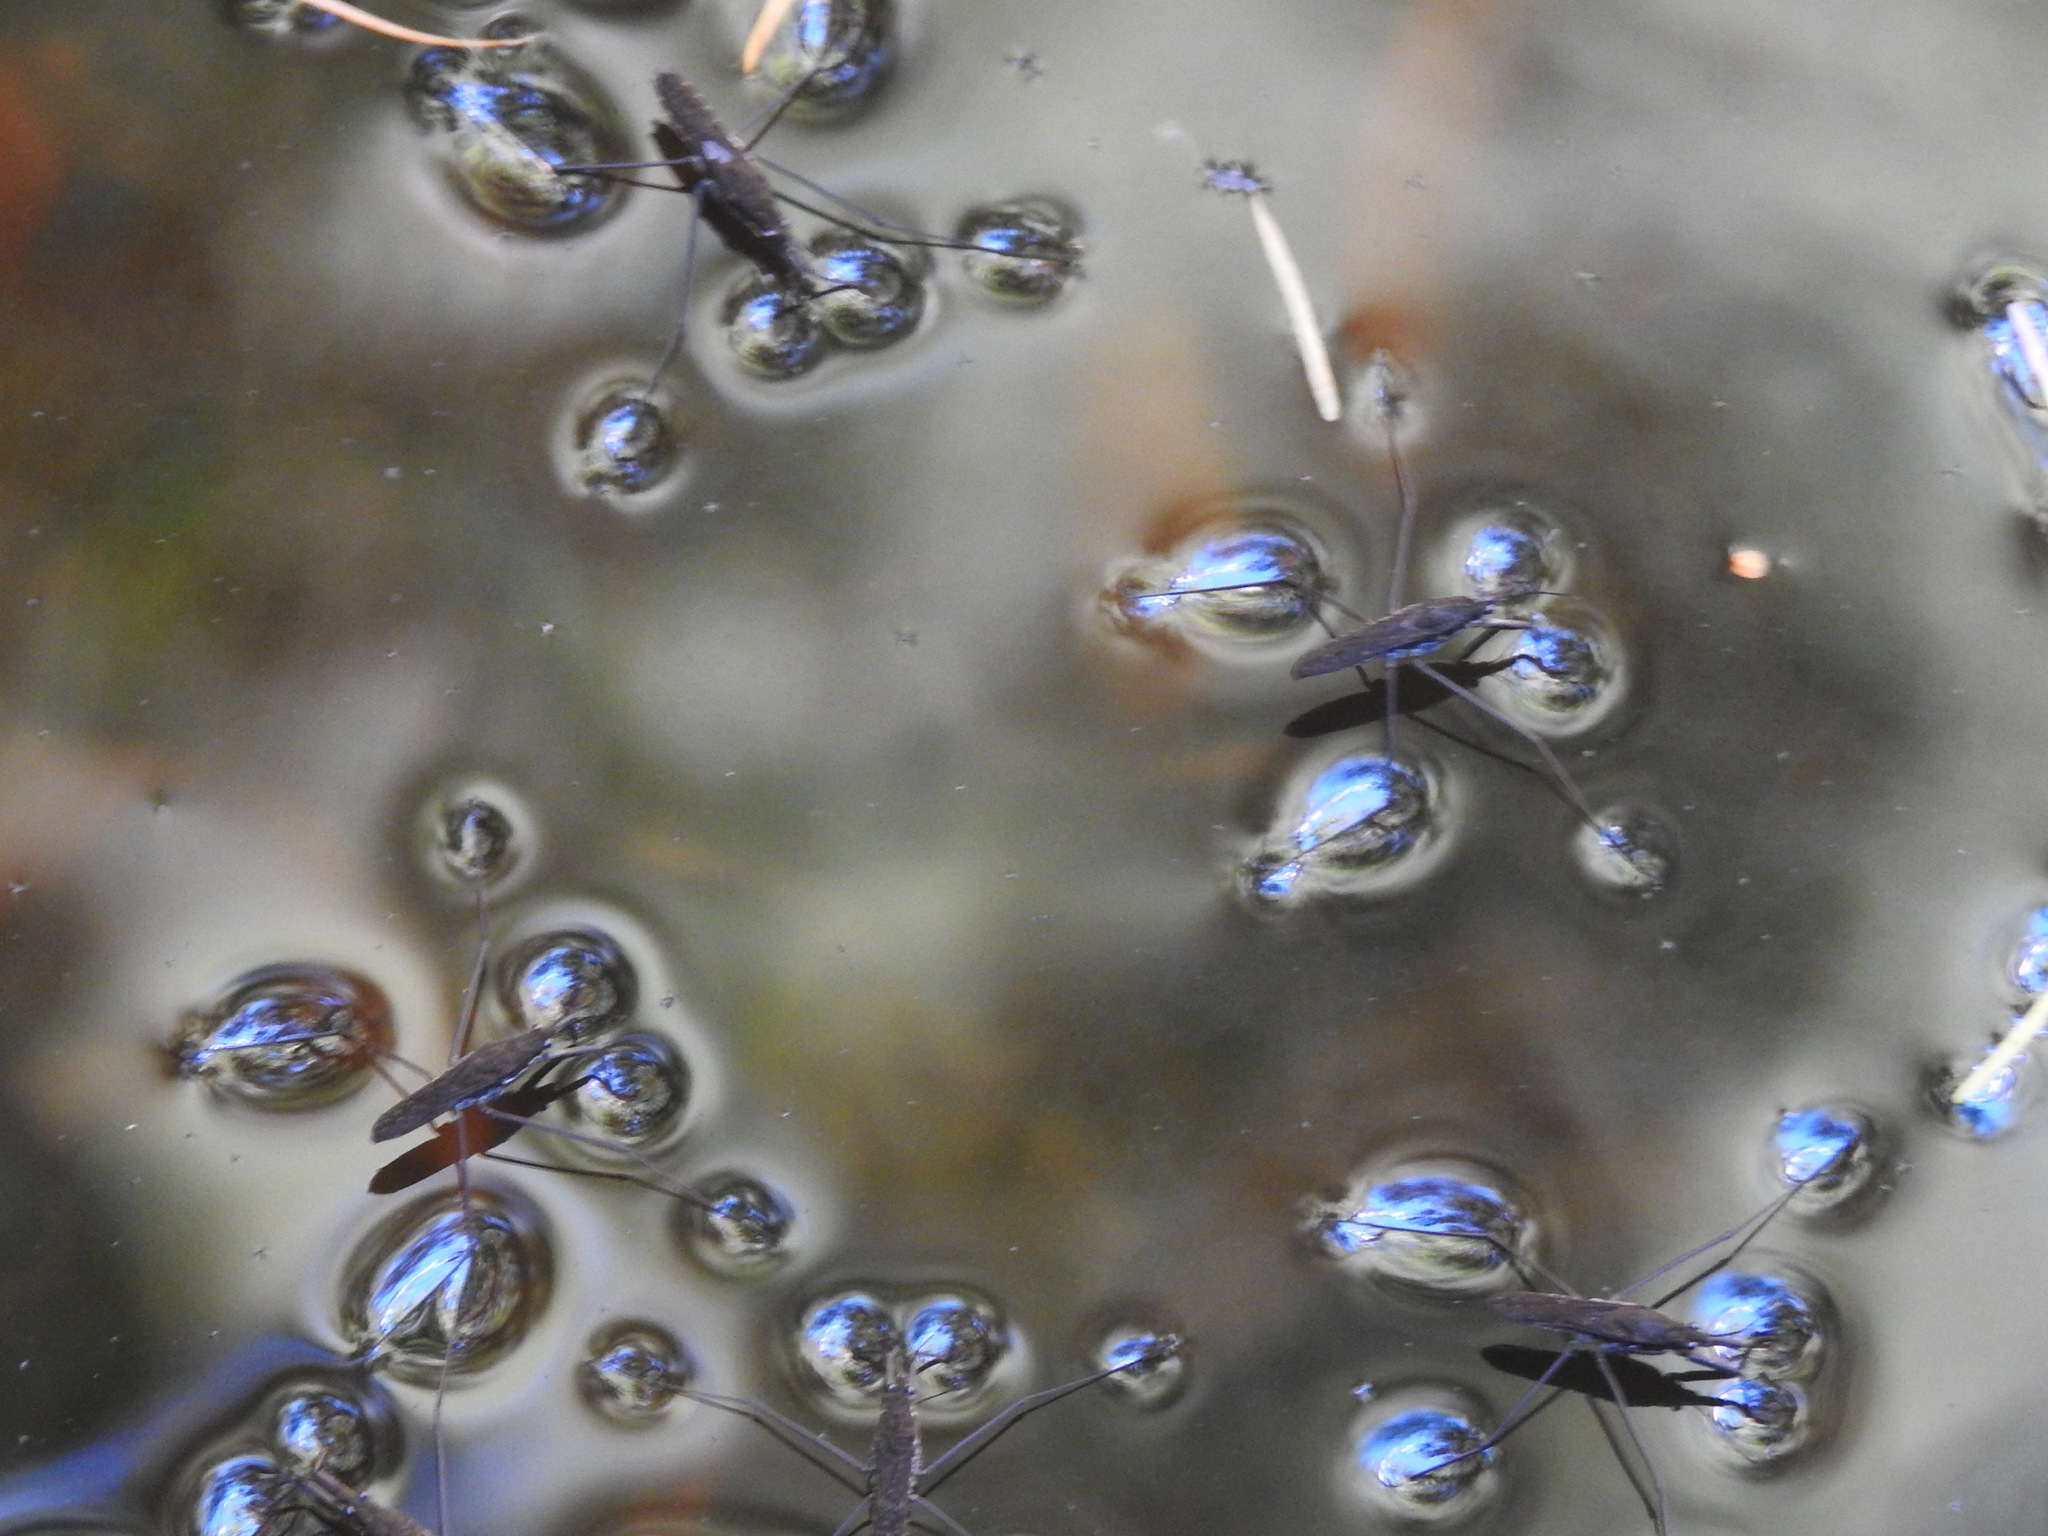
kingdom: Animalia
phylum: Arthropoda
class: Insecta
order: Hemiptera
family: Gerridae
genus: Aquarius
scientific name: Aquarius remigis
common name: Common water strider
